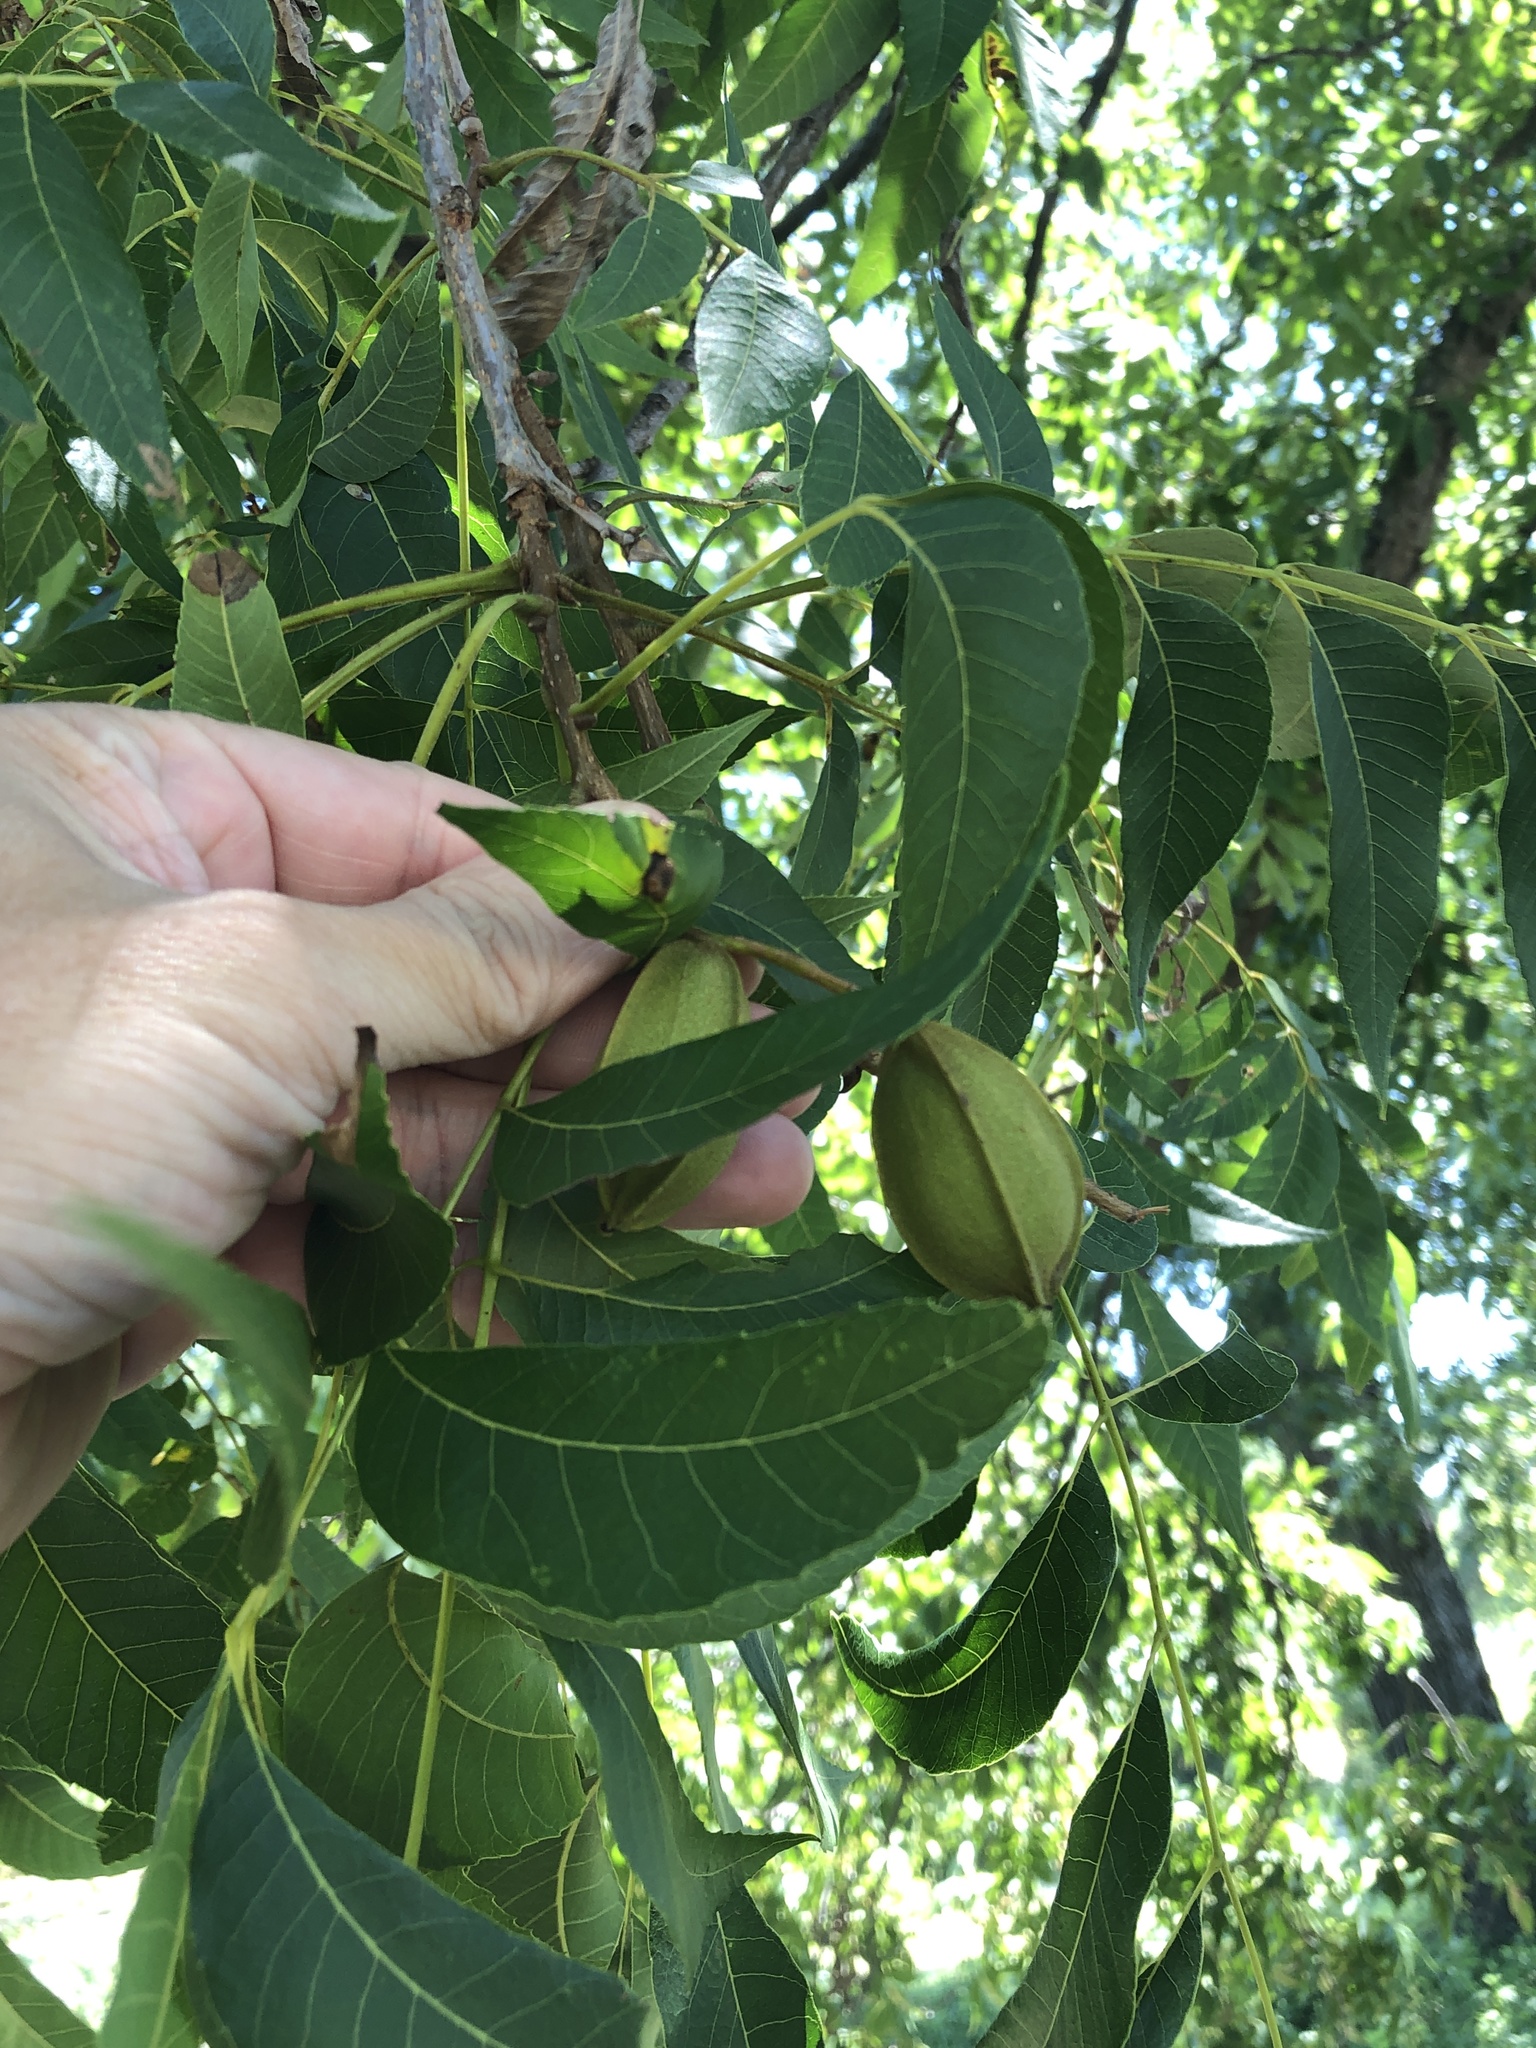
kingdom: Plantae
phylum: Tracheophyta
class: Magnoliopsida
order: Fagales
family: Juglandaceae
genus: Carya
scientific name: Carya illinoinensis
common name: Pecan
